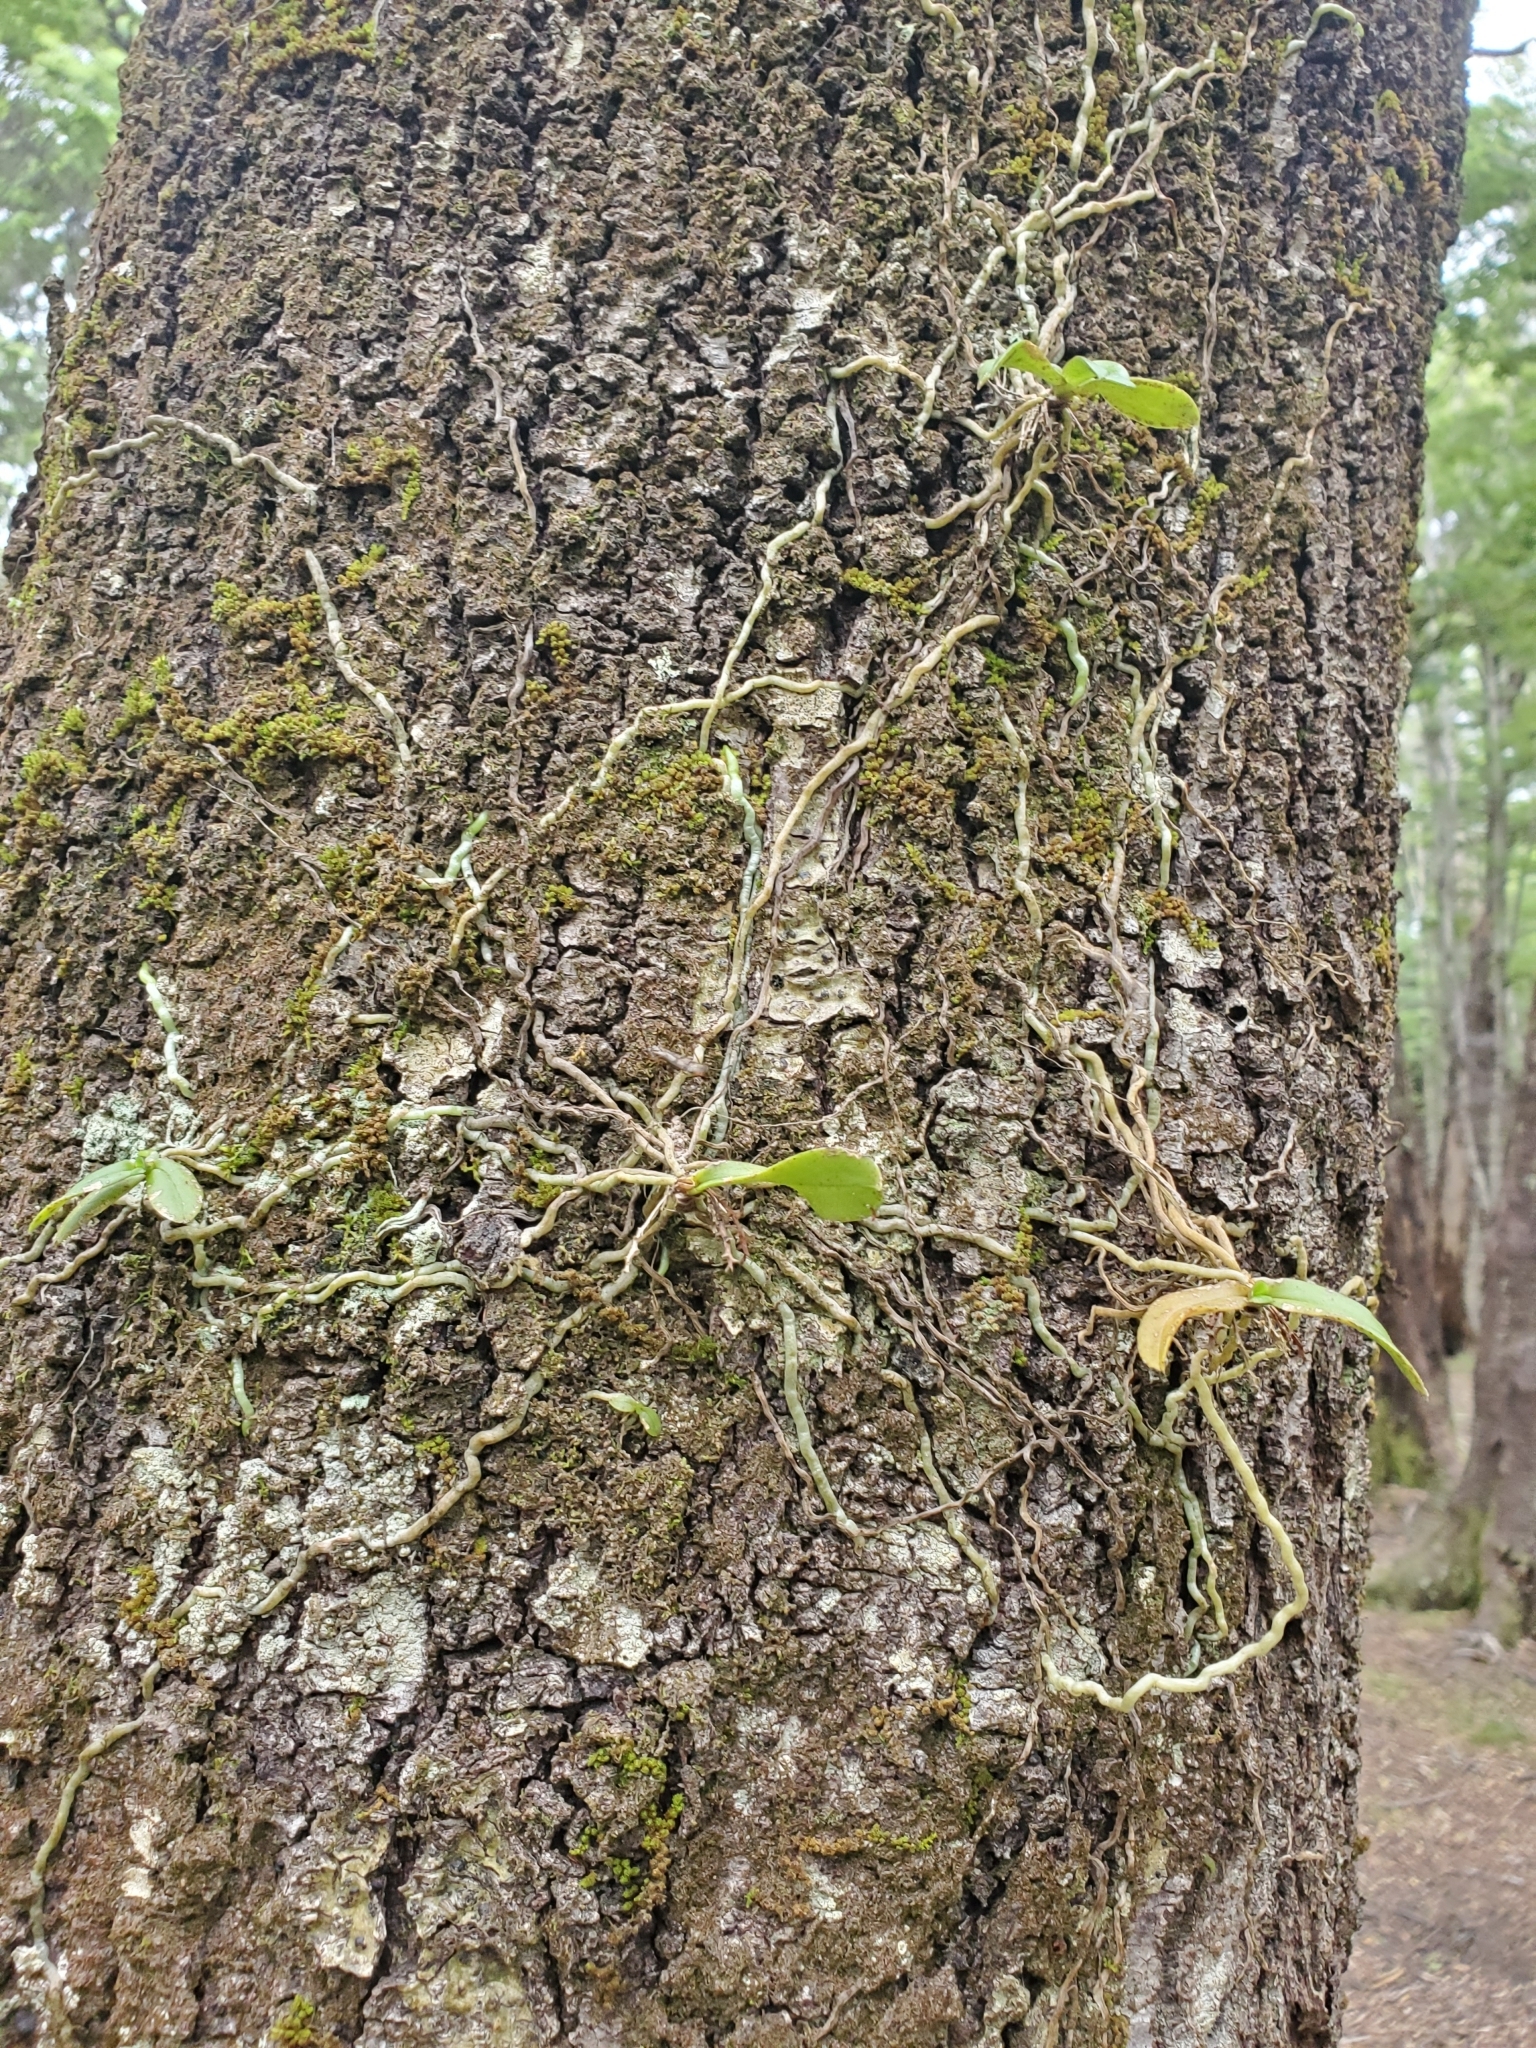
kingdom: Plantae
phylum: Tracheophyta
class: Liliopsida
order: Asparagales
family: Orchidaceae
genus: Drymoanthus
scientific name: Drymoanthus adversus
